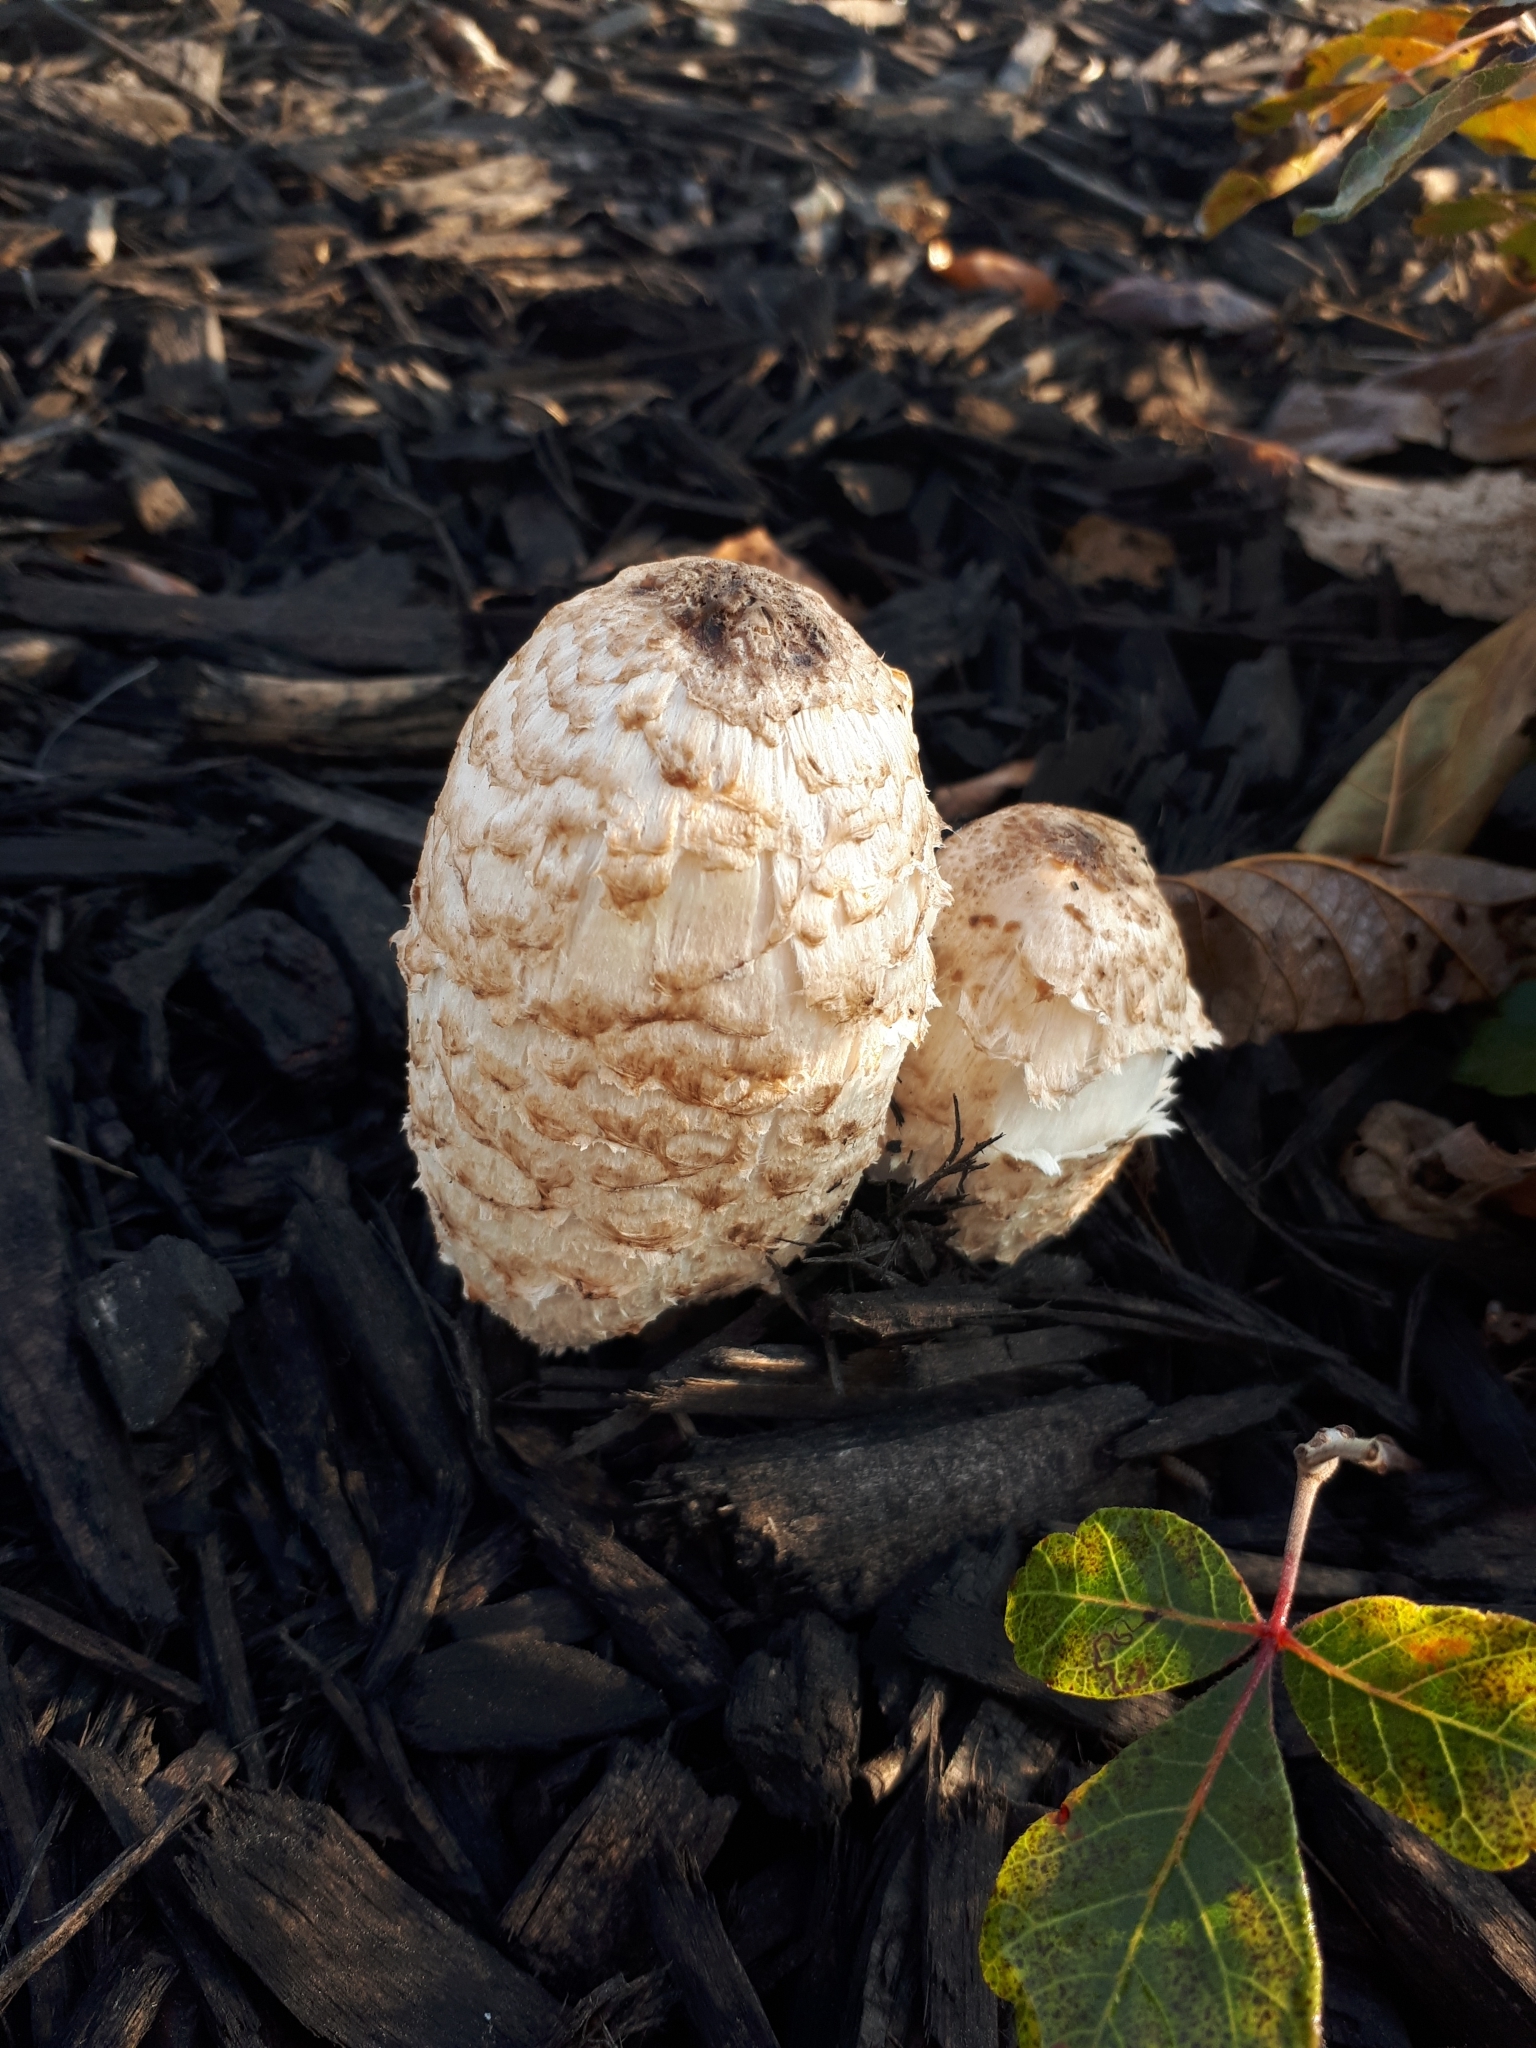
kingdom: Fungi
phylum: Basidiomycota
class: Agaricomycetes
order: Agaricales
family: Agaricaceae
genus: Coprinus
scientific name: Coprinus comatus
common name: Lawyer's wig
